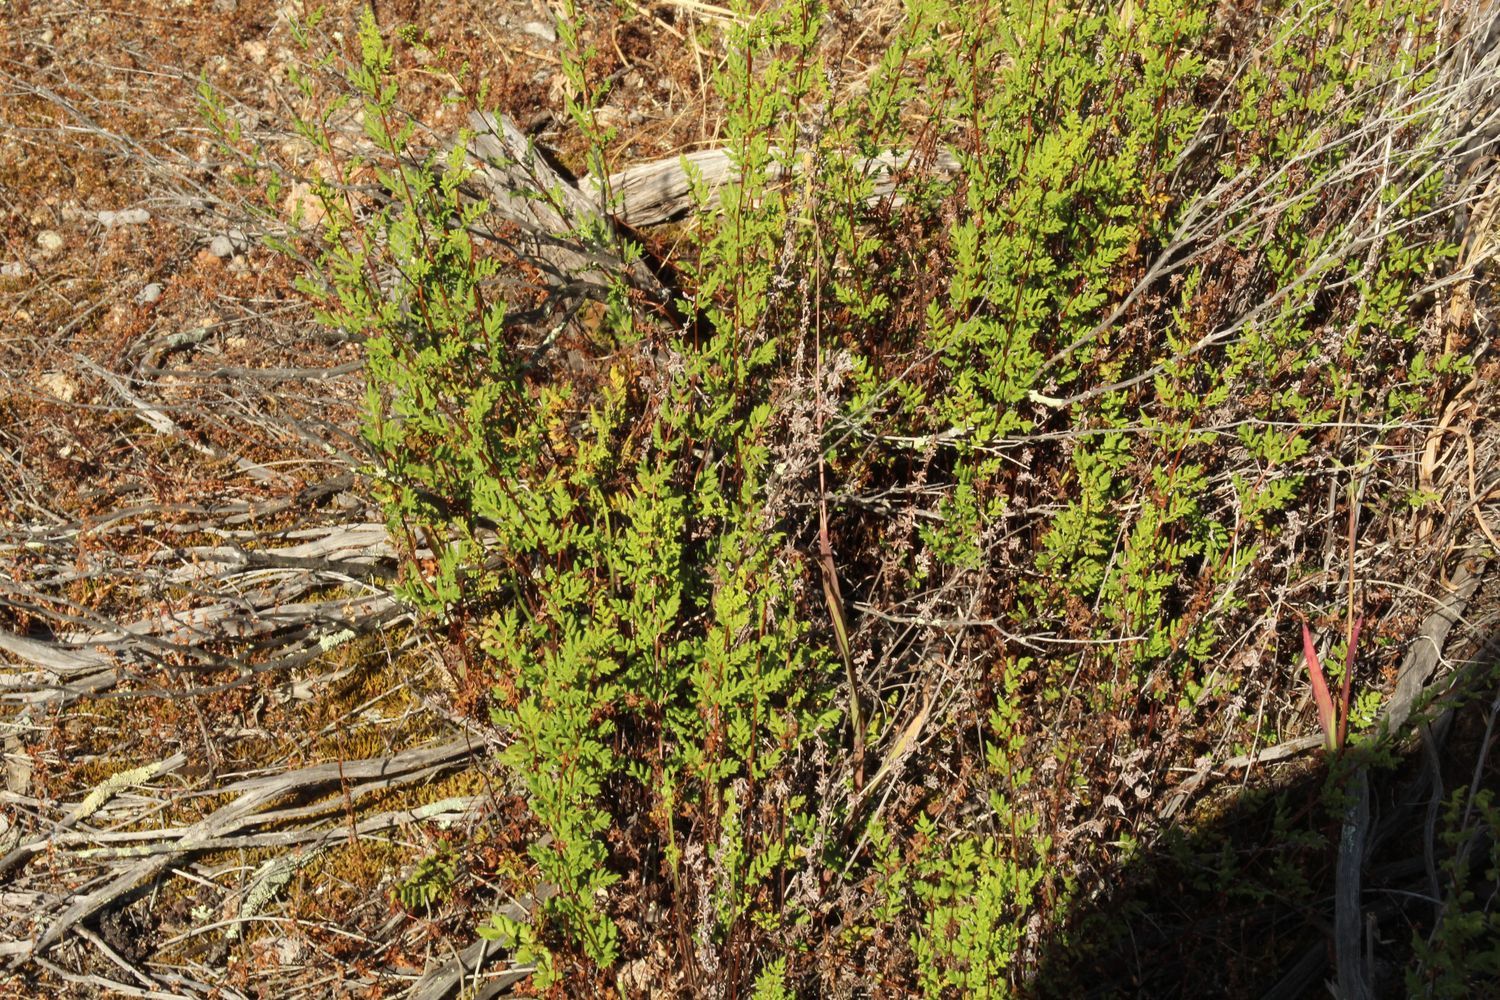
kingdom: Plantae
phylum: Tracheophyta
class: Polypodiopsida
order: Polypodiales
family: Pteridaceae
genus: Cheilanthes
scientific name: Cheilanthes sieberi
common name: Mulga fern
